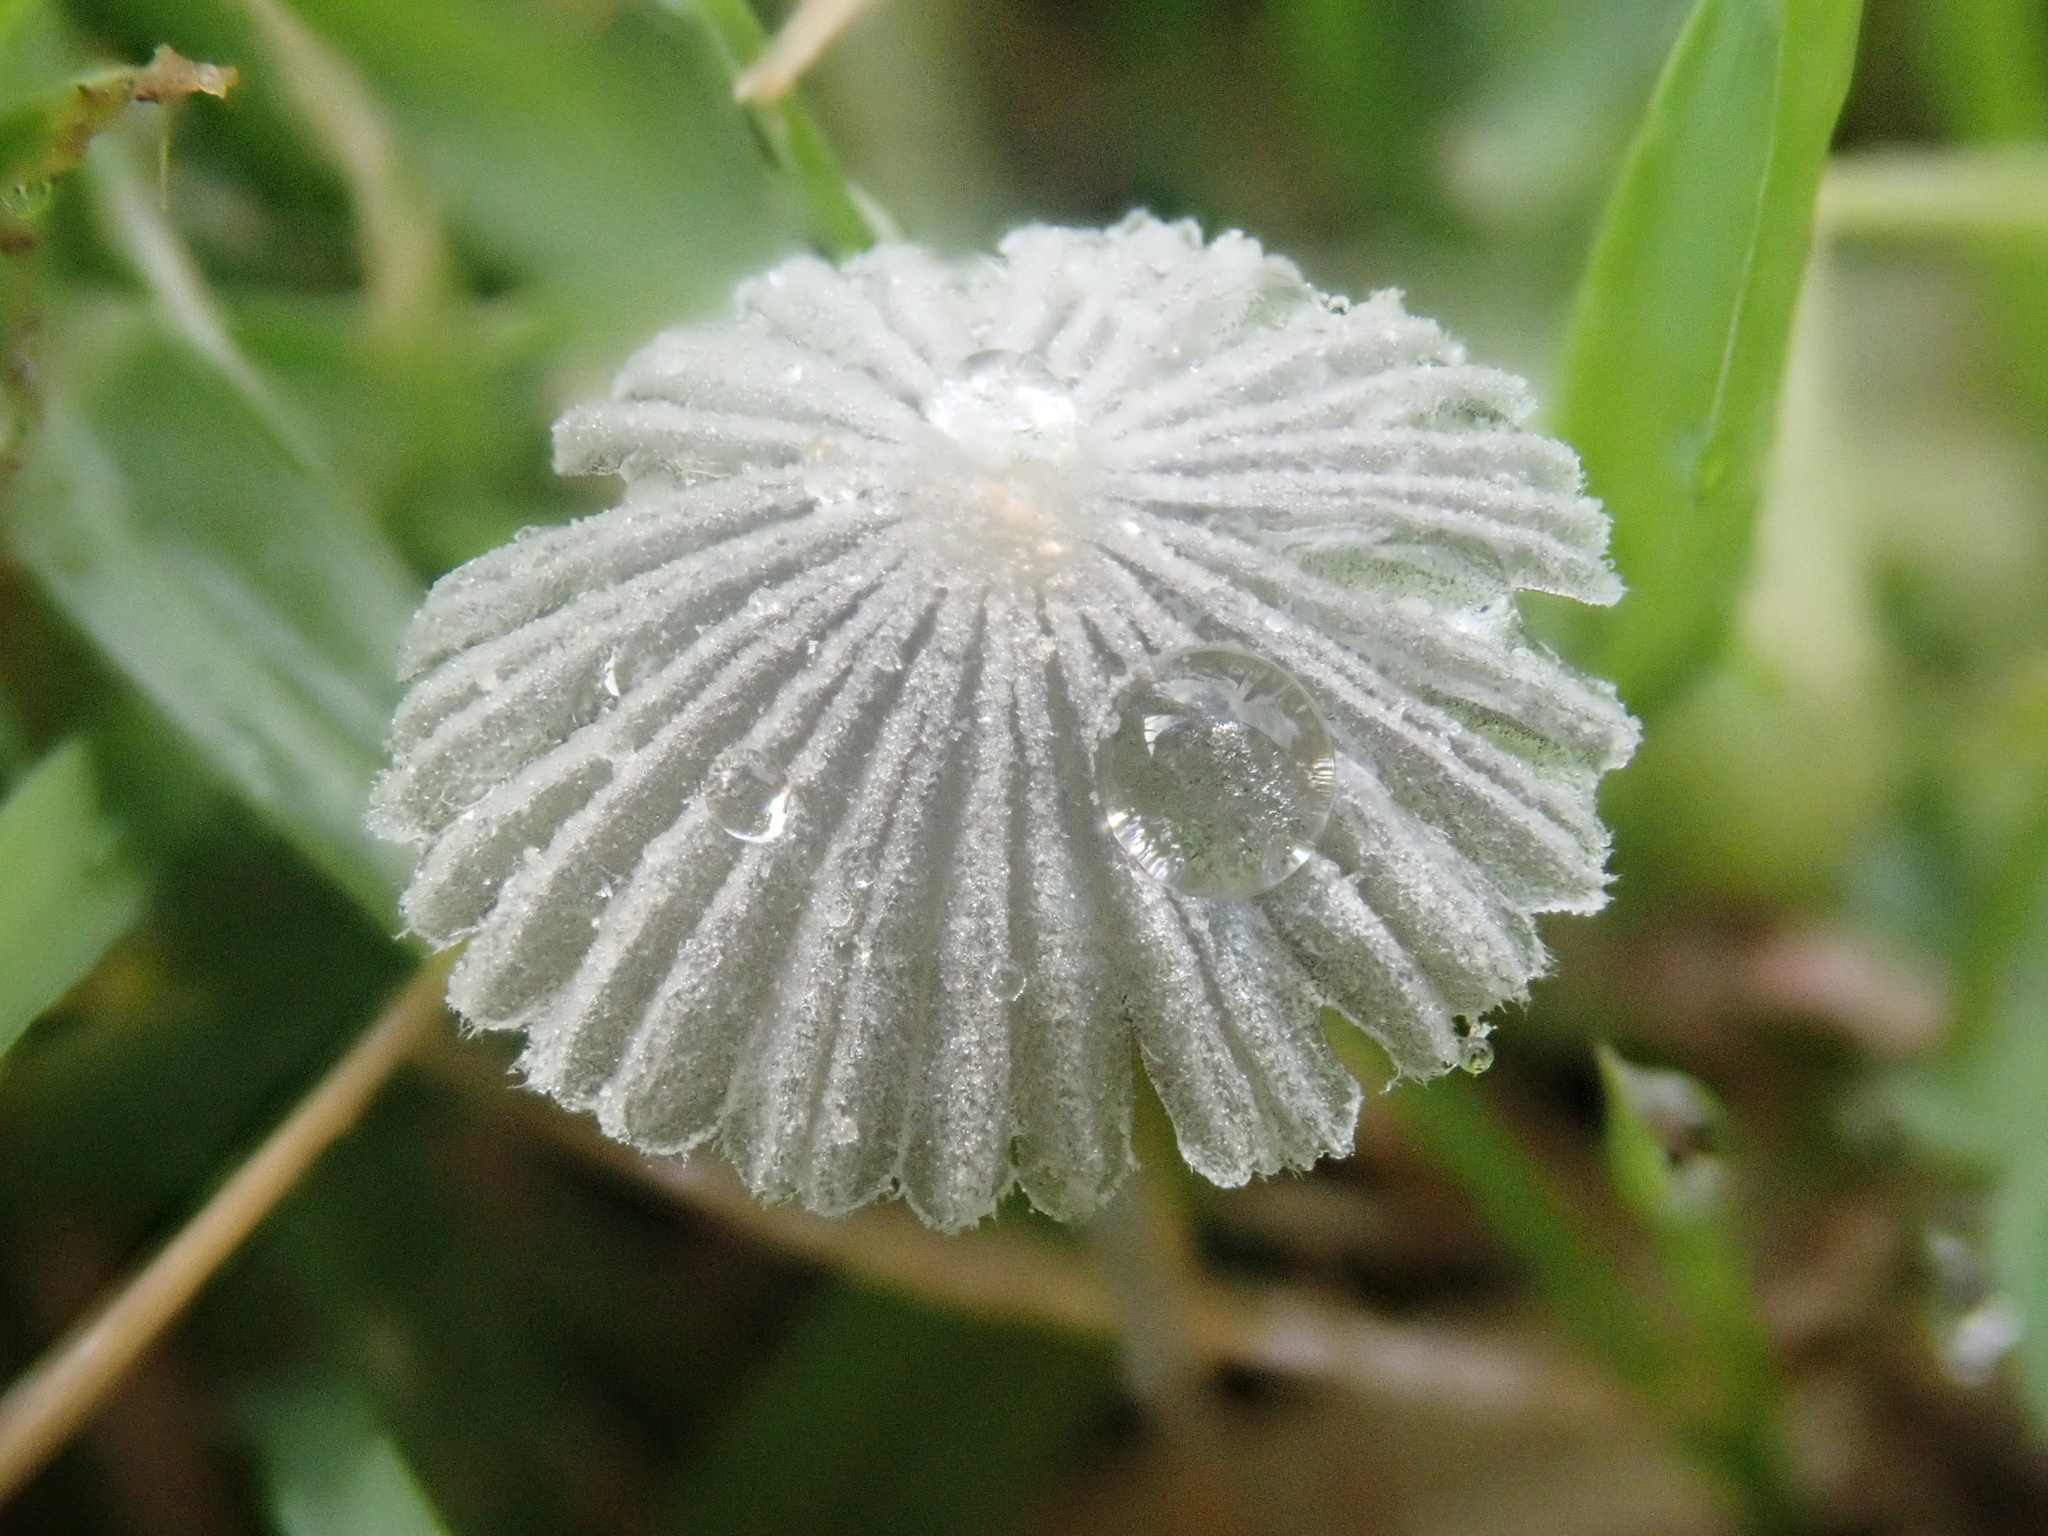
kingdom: Fungi
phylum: Basidiomycota
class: Agaricomycetes
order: Agaricales
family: Psathyrellaceae
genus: Parasola
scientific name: Parasola plicatilis
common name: Pleated inkcap
